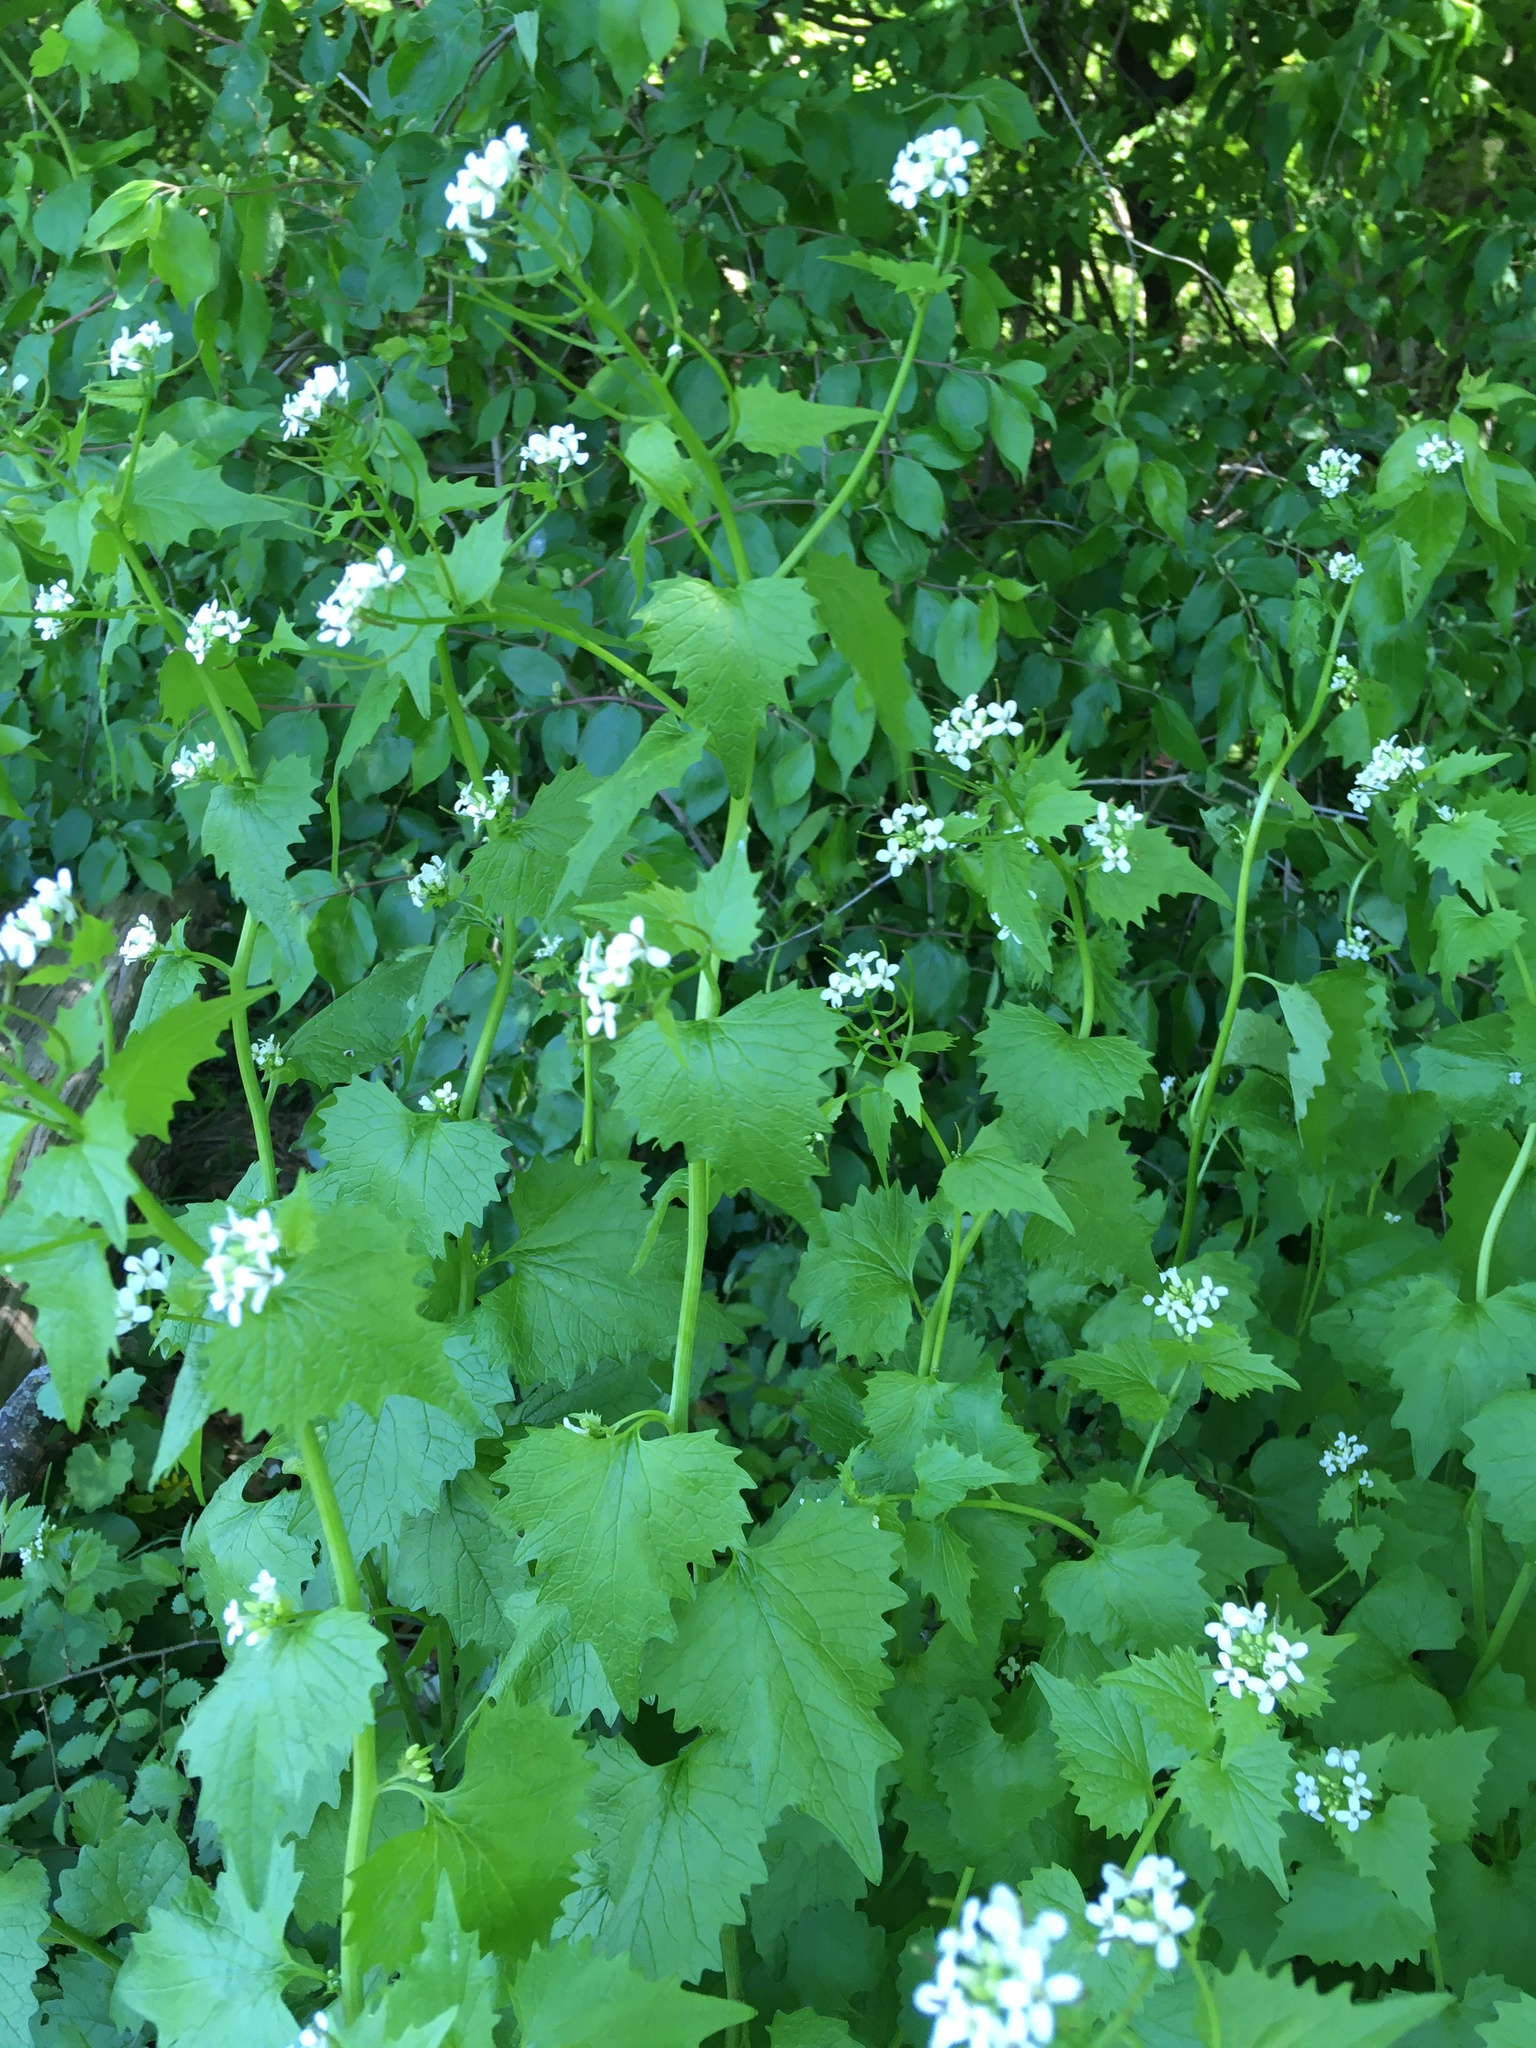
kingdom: Plantae
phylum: Tracheophyta
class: Magnoliopsida
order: Brassicales
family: Brassicaceae
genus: Alliaria
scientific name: Alliaria petiolata
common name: Garlic mustard
